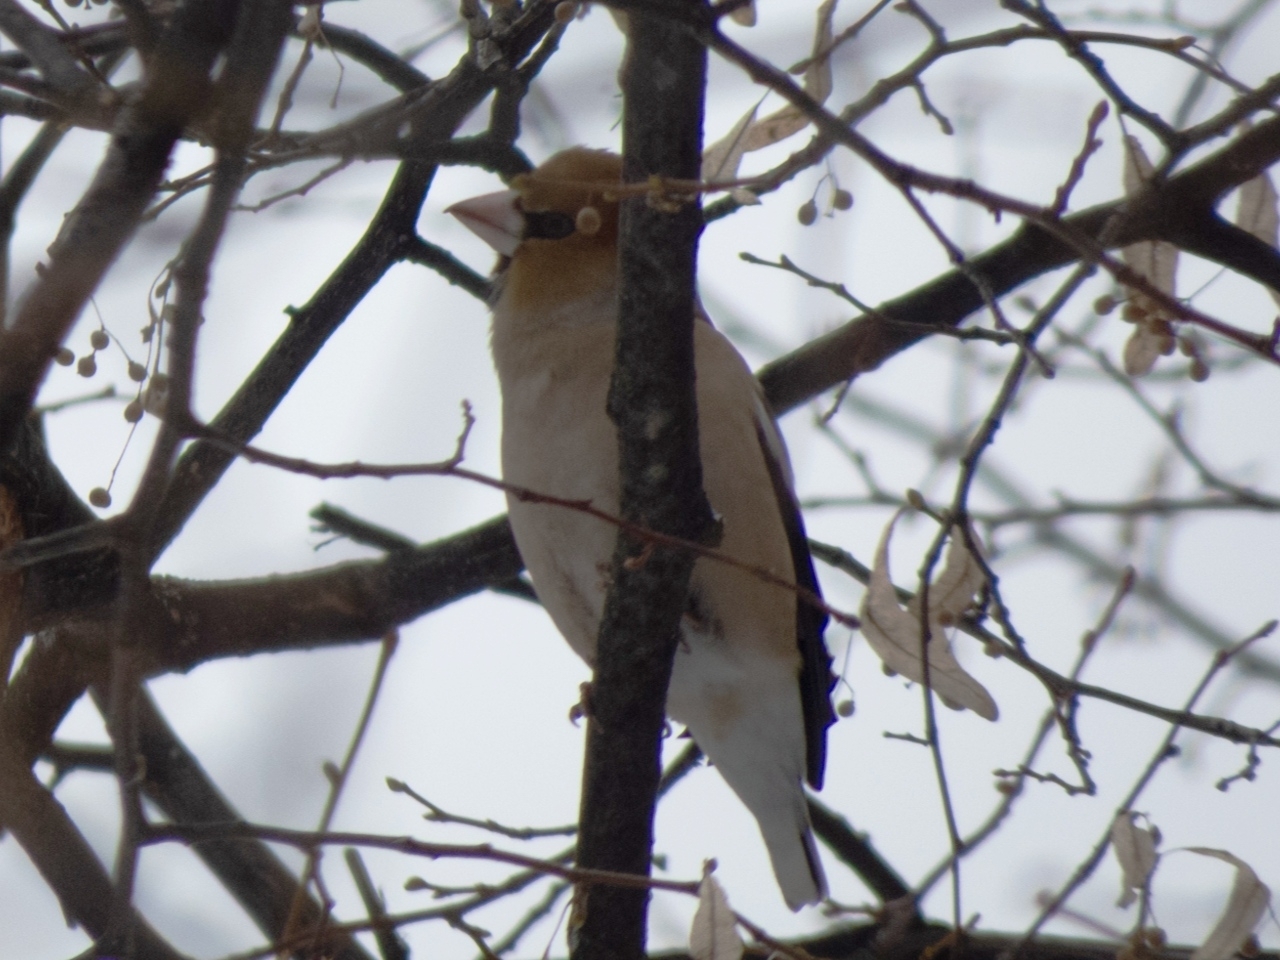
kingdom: Animalia
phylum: Chordata
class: Aves
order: Passeriformes
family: Fringillidae
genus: Coccothraustes
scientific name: Coccothraustes coccothraustes
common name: Hawfinch
